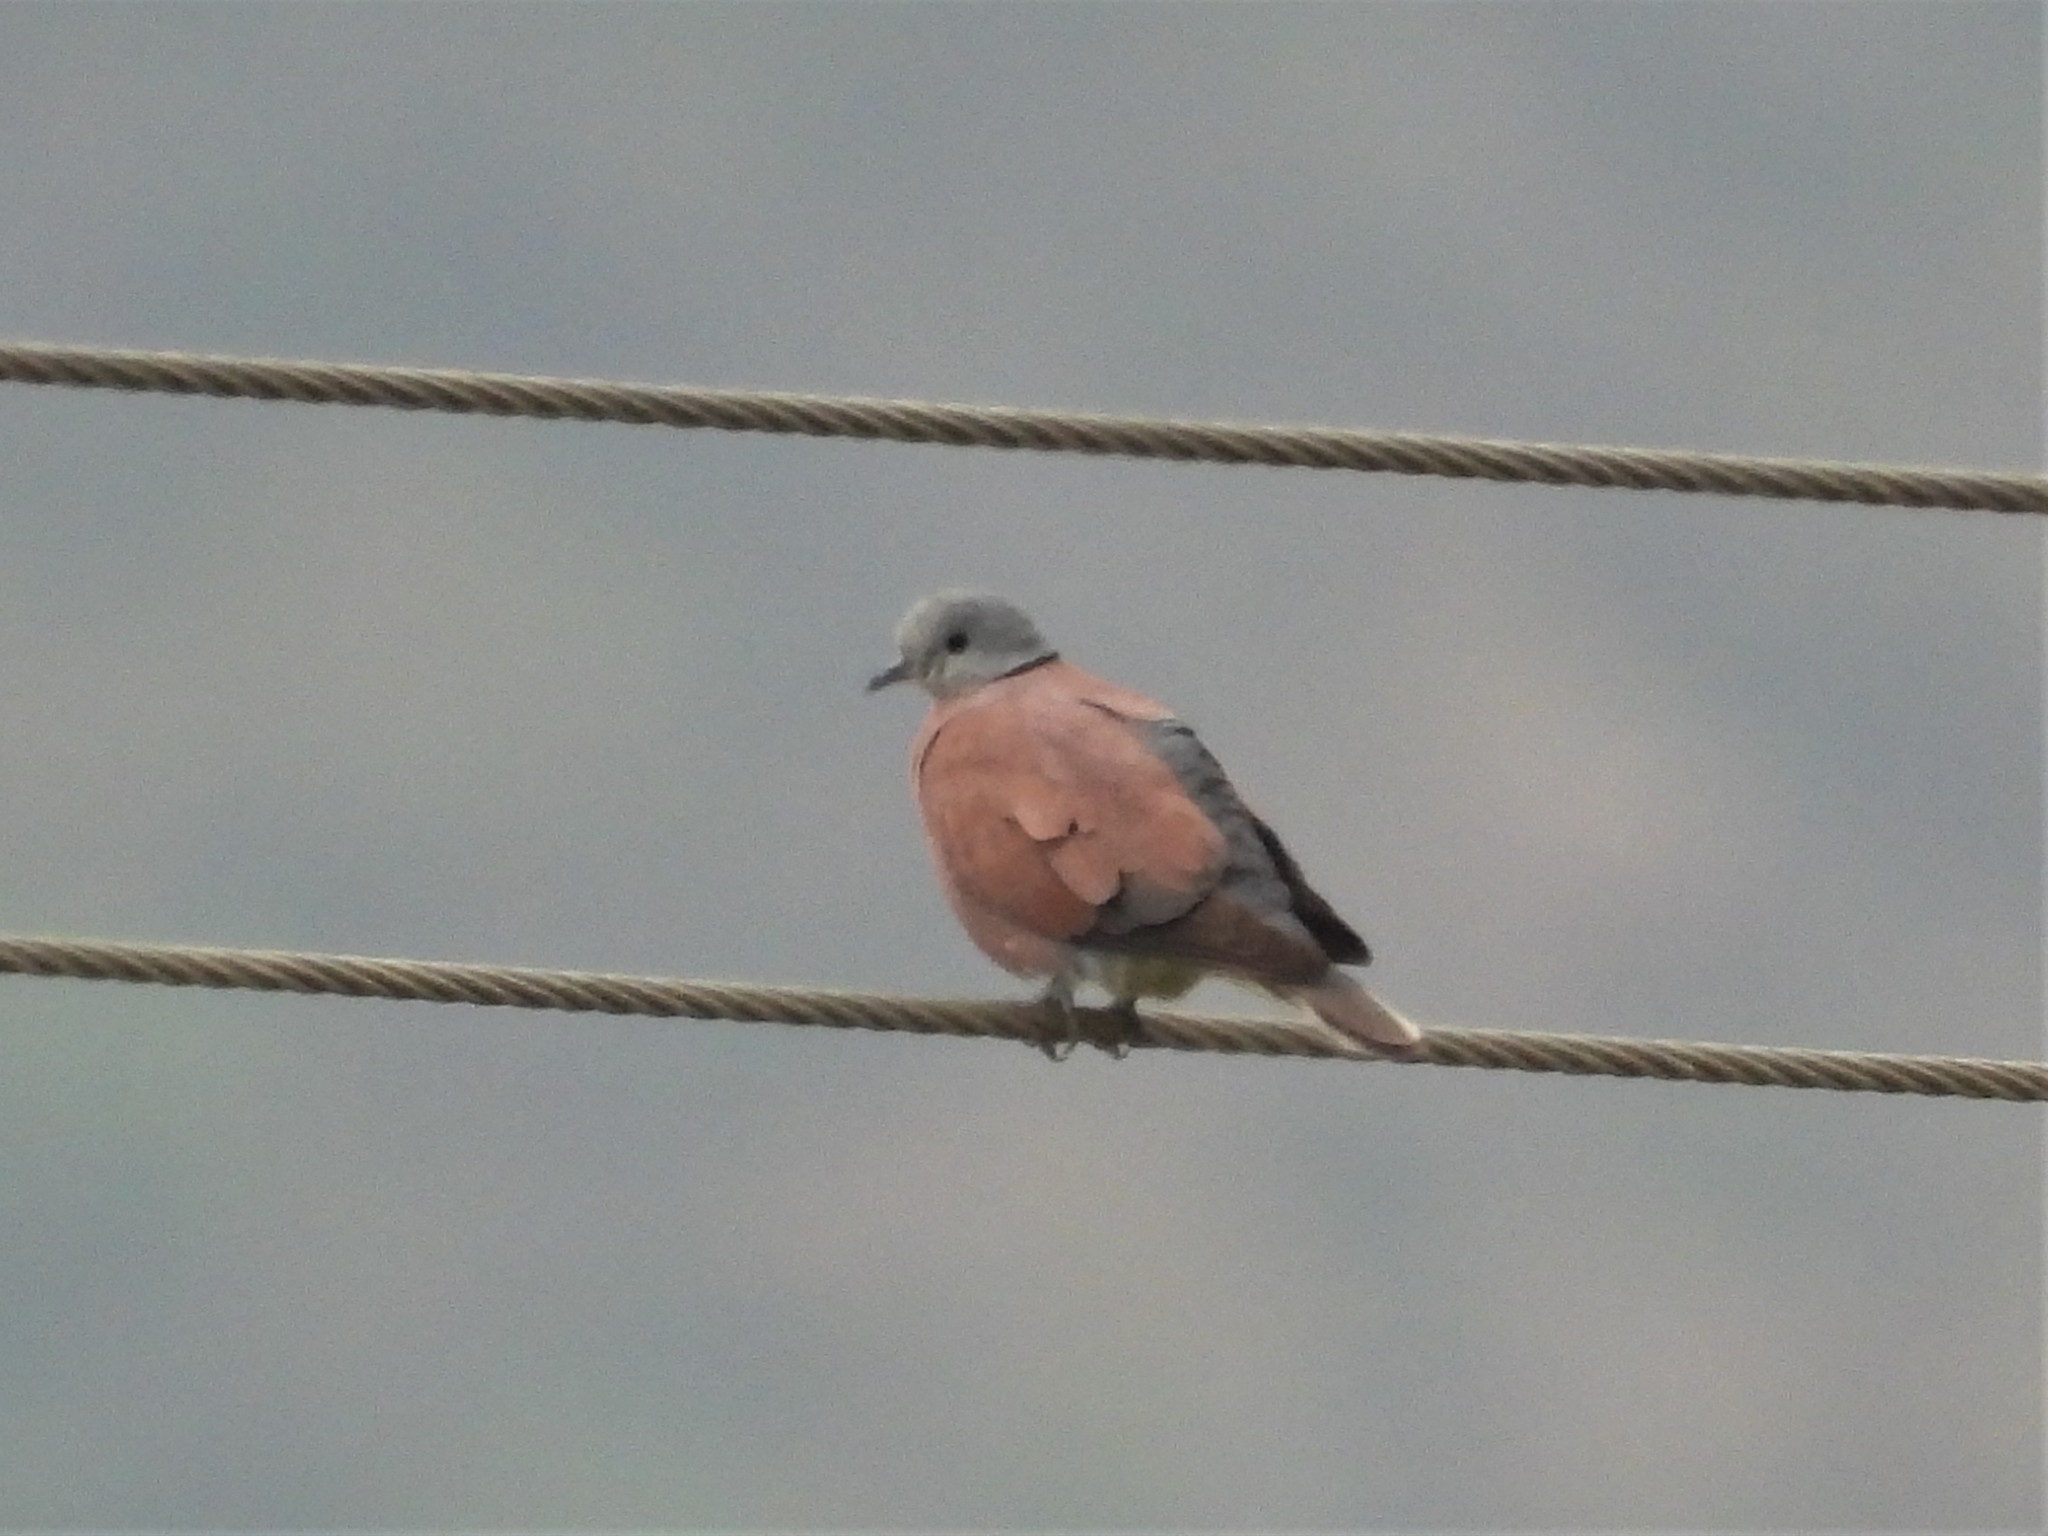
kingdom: Animalia
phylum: Chordata
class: Aves
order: Columbiformes
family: Columbidae
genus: Streptopelia
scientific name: Streptopelia tranquebarica
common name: Red turtle dove
